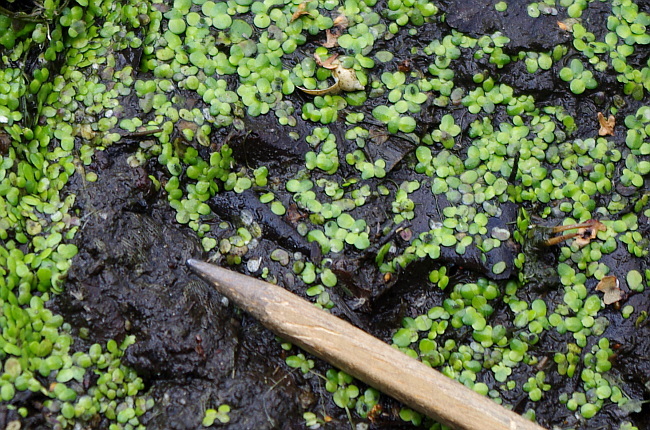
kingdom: Plantae
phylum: Tracheophyta
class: Liliopsida
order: Alismatales
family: Araceae
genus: Lemna
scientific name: Lemna minor
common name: Common duckweed
